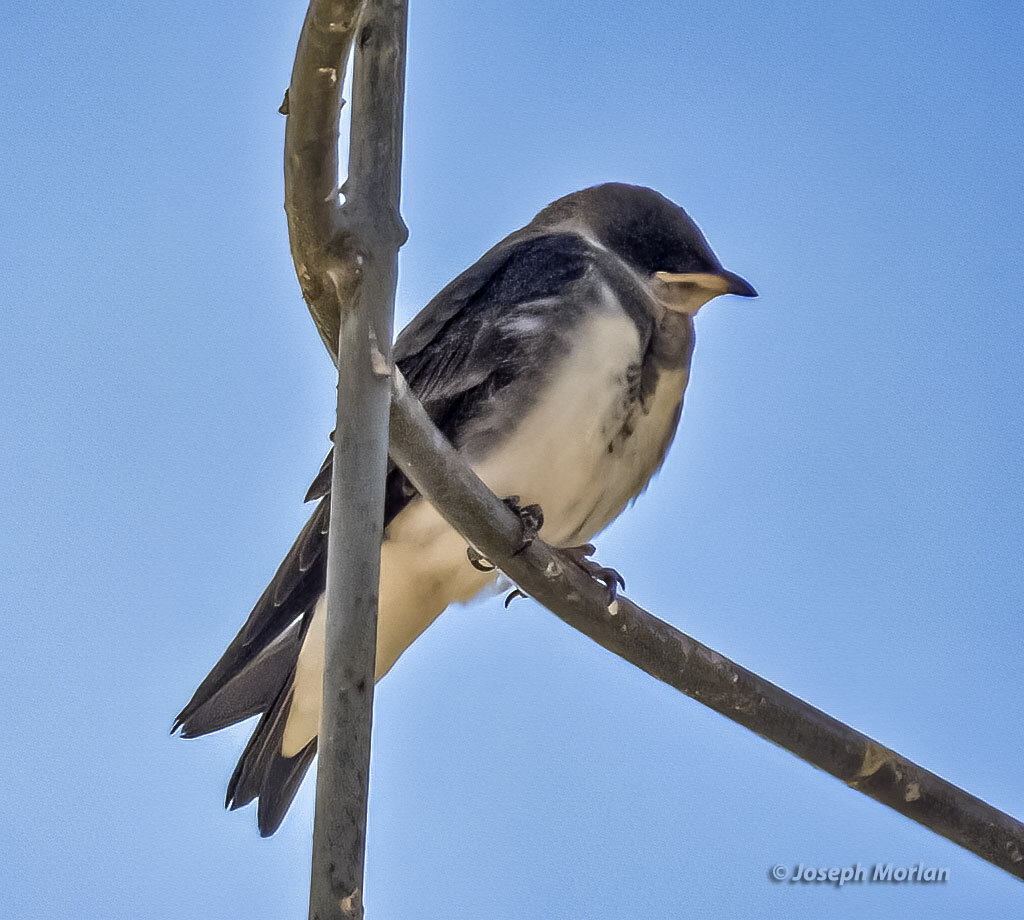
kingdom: Animalia
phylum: Chordata
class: Aves
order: Passeriformes
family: Hirundinidae
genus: Progne
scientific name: Progne tapera
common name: Brown-chested martin
